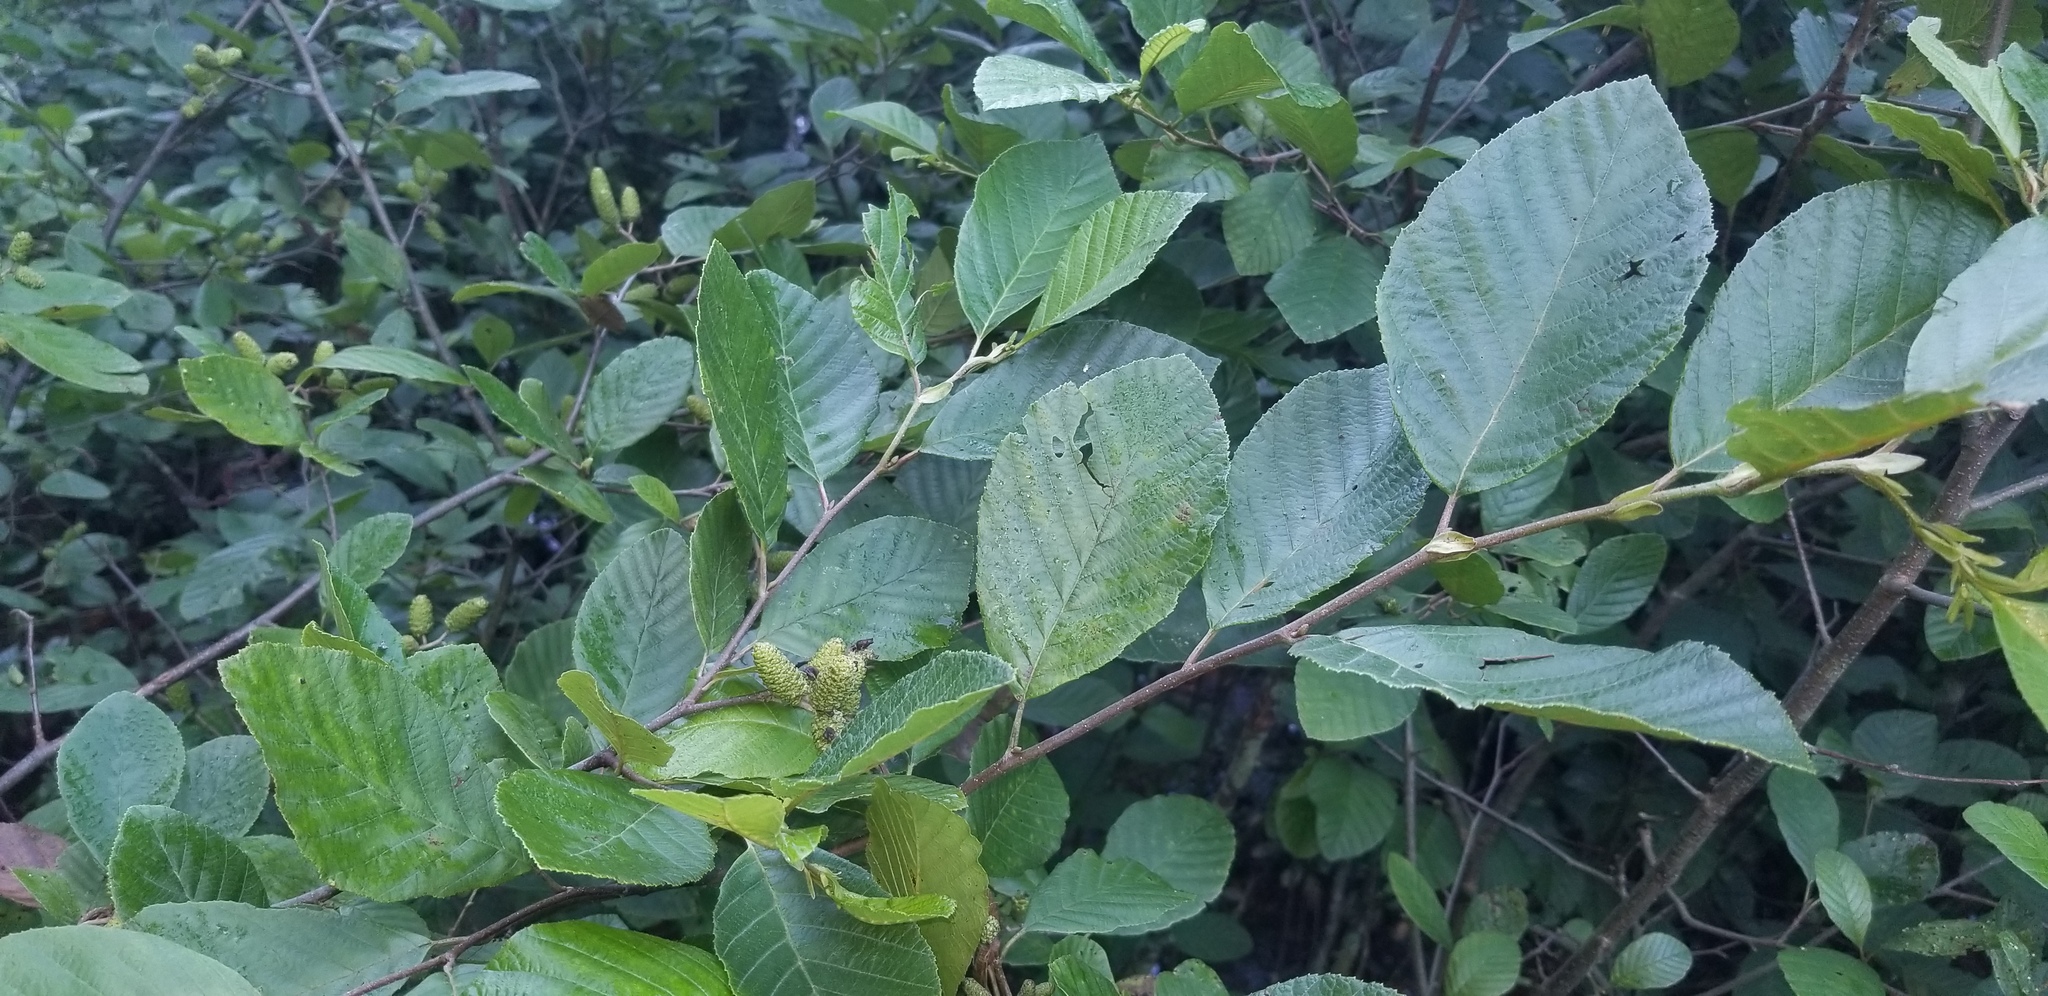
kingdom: Fungi
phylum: Ascomycota
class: Taphrinomycetes
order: Taphrinales
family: Taphrinaceae
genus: Taphrina
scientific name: Taphrina robinsoniana
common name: Eastern american alder tongue gall fungus
